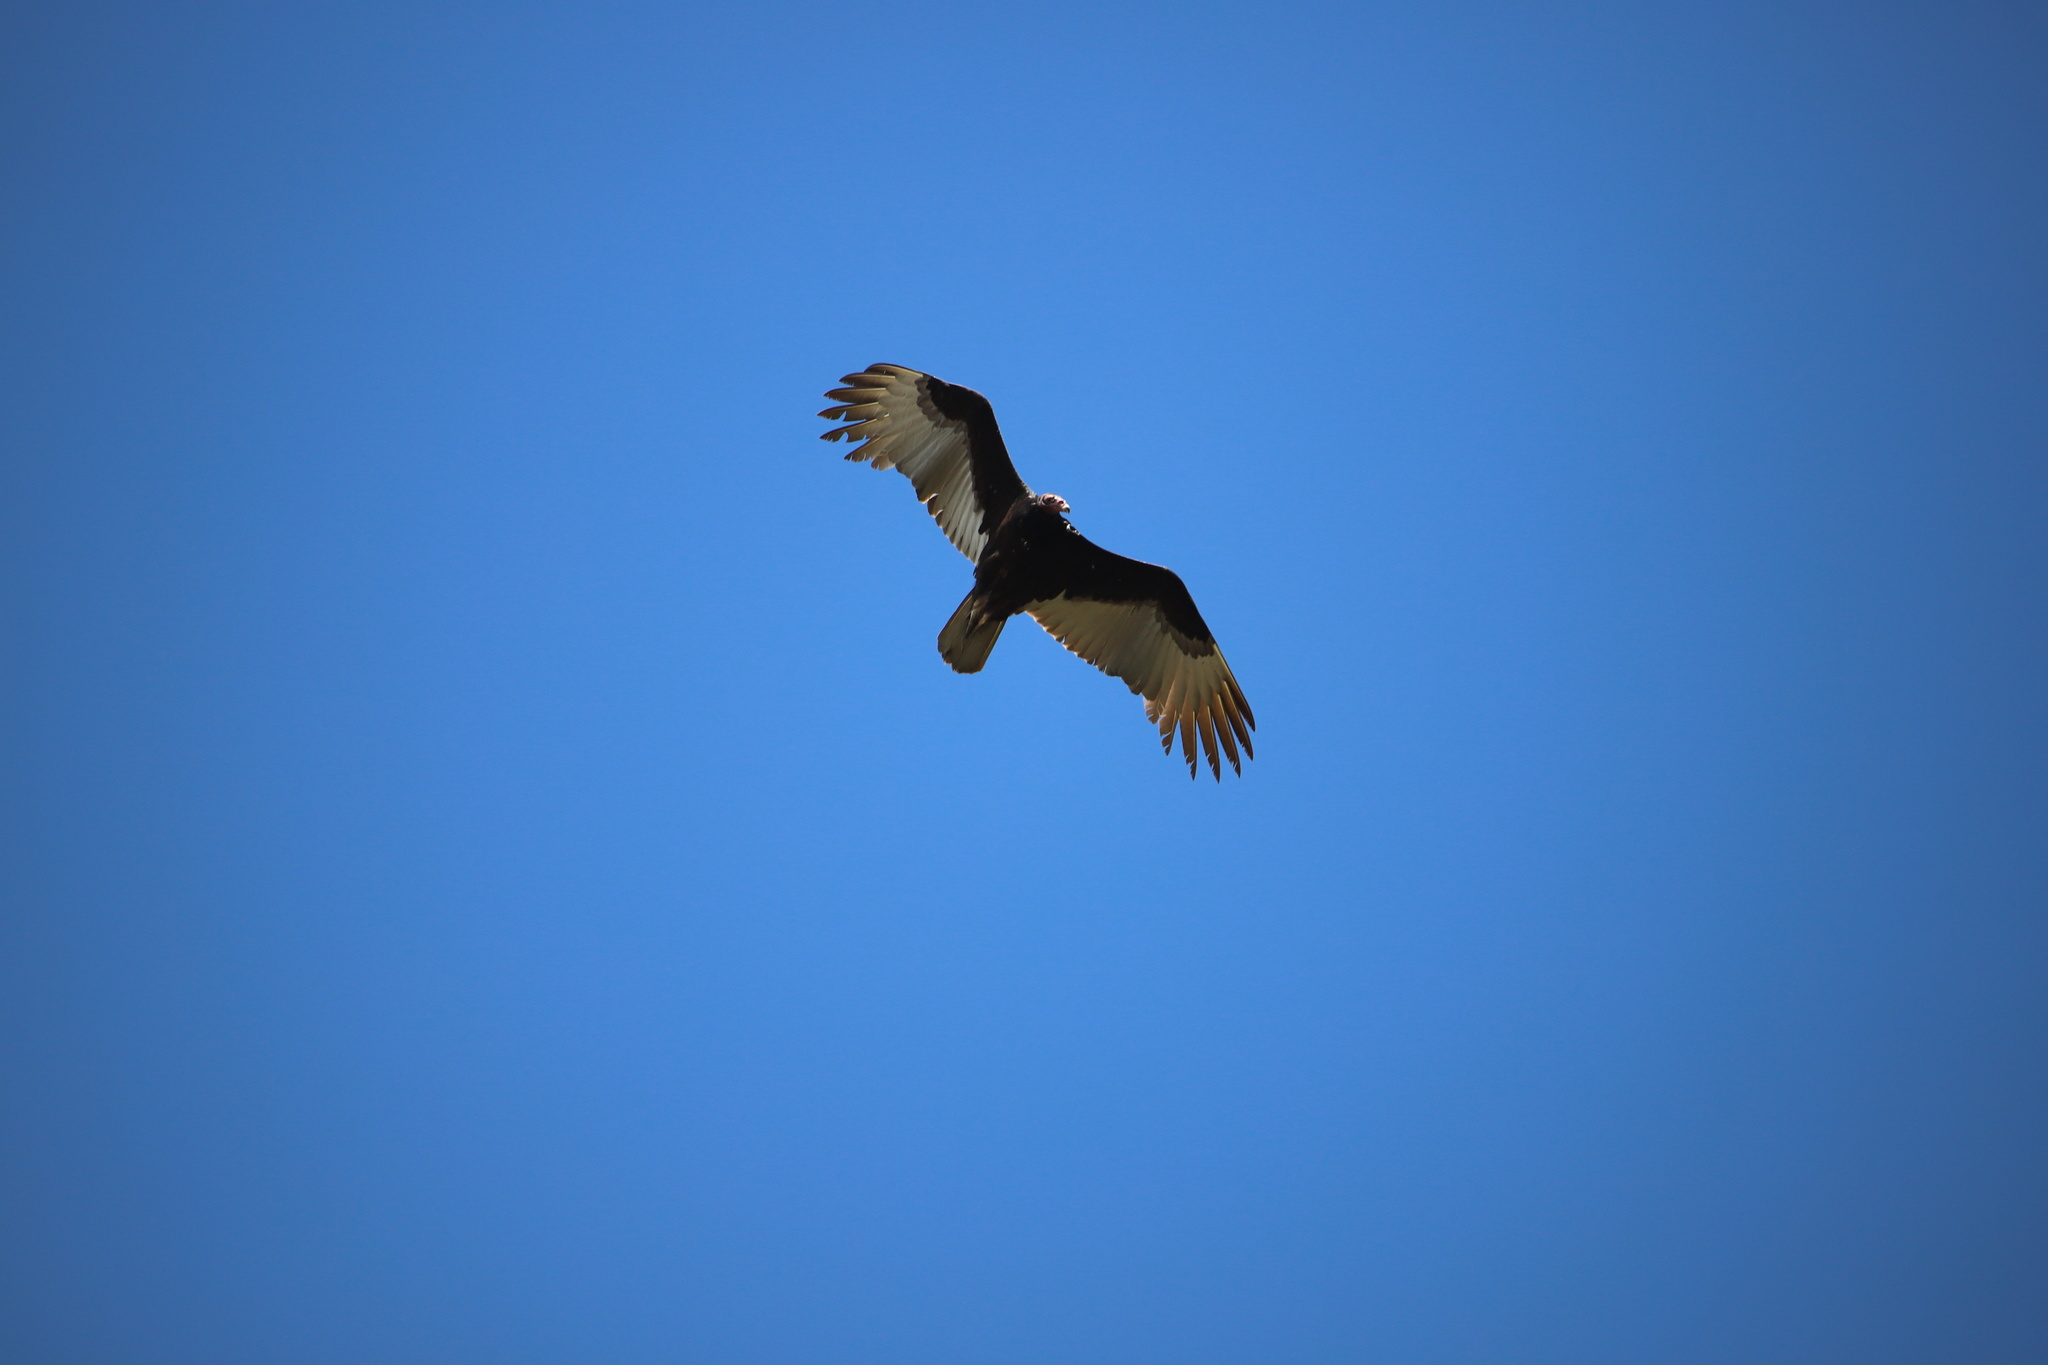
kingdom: Animalia
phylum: Chordata
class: Aves
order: Accipitriformes
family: Cathartidae
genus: Cathartes
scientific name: Cathartes aura
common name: Turkey vulture
